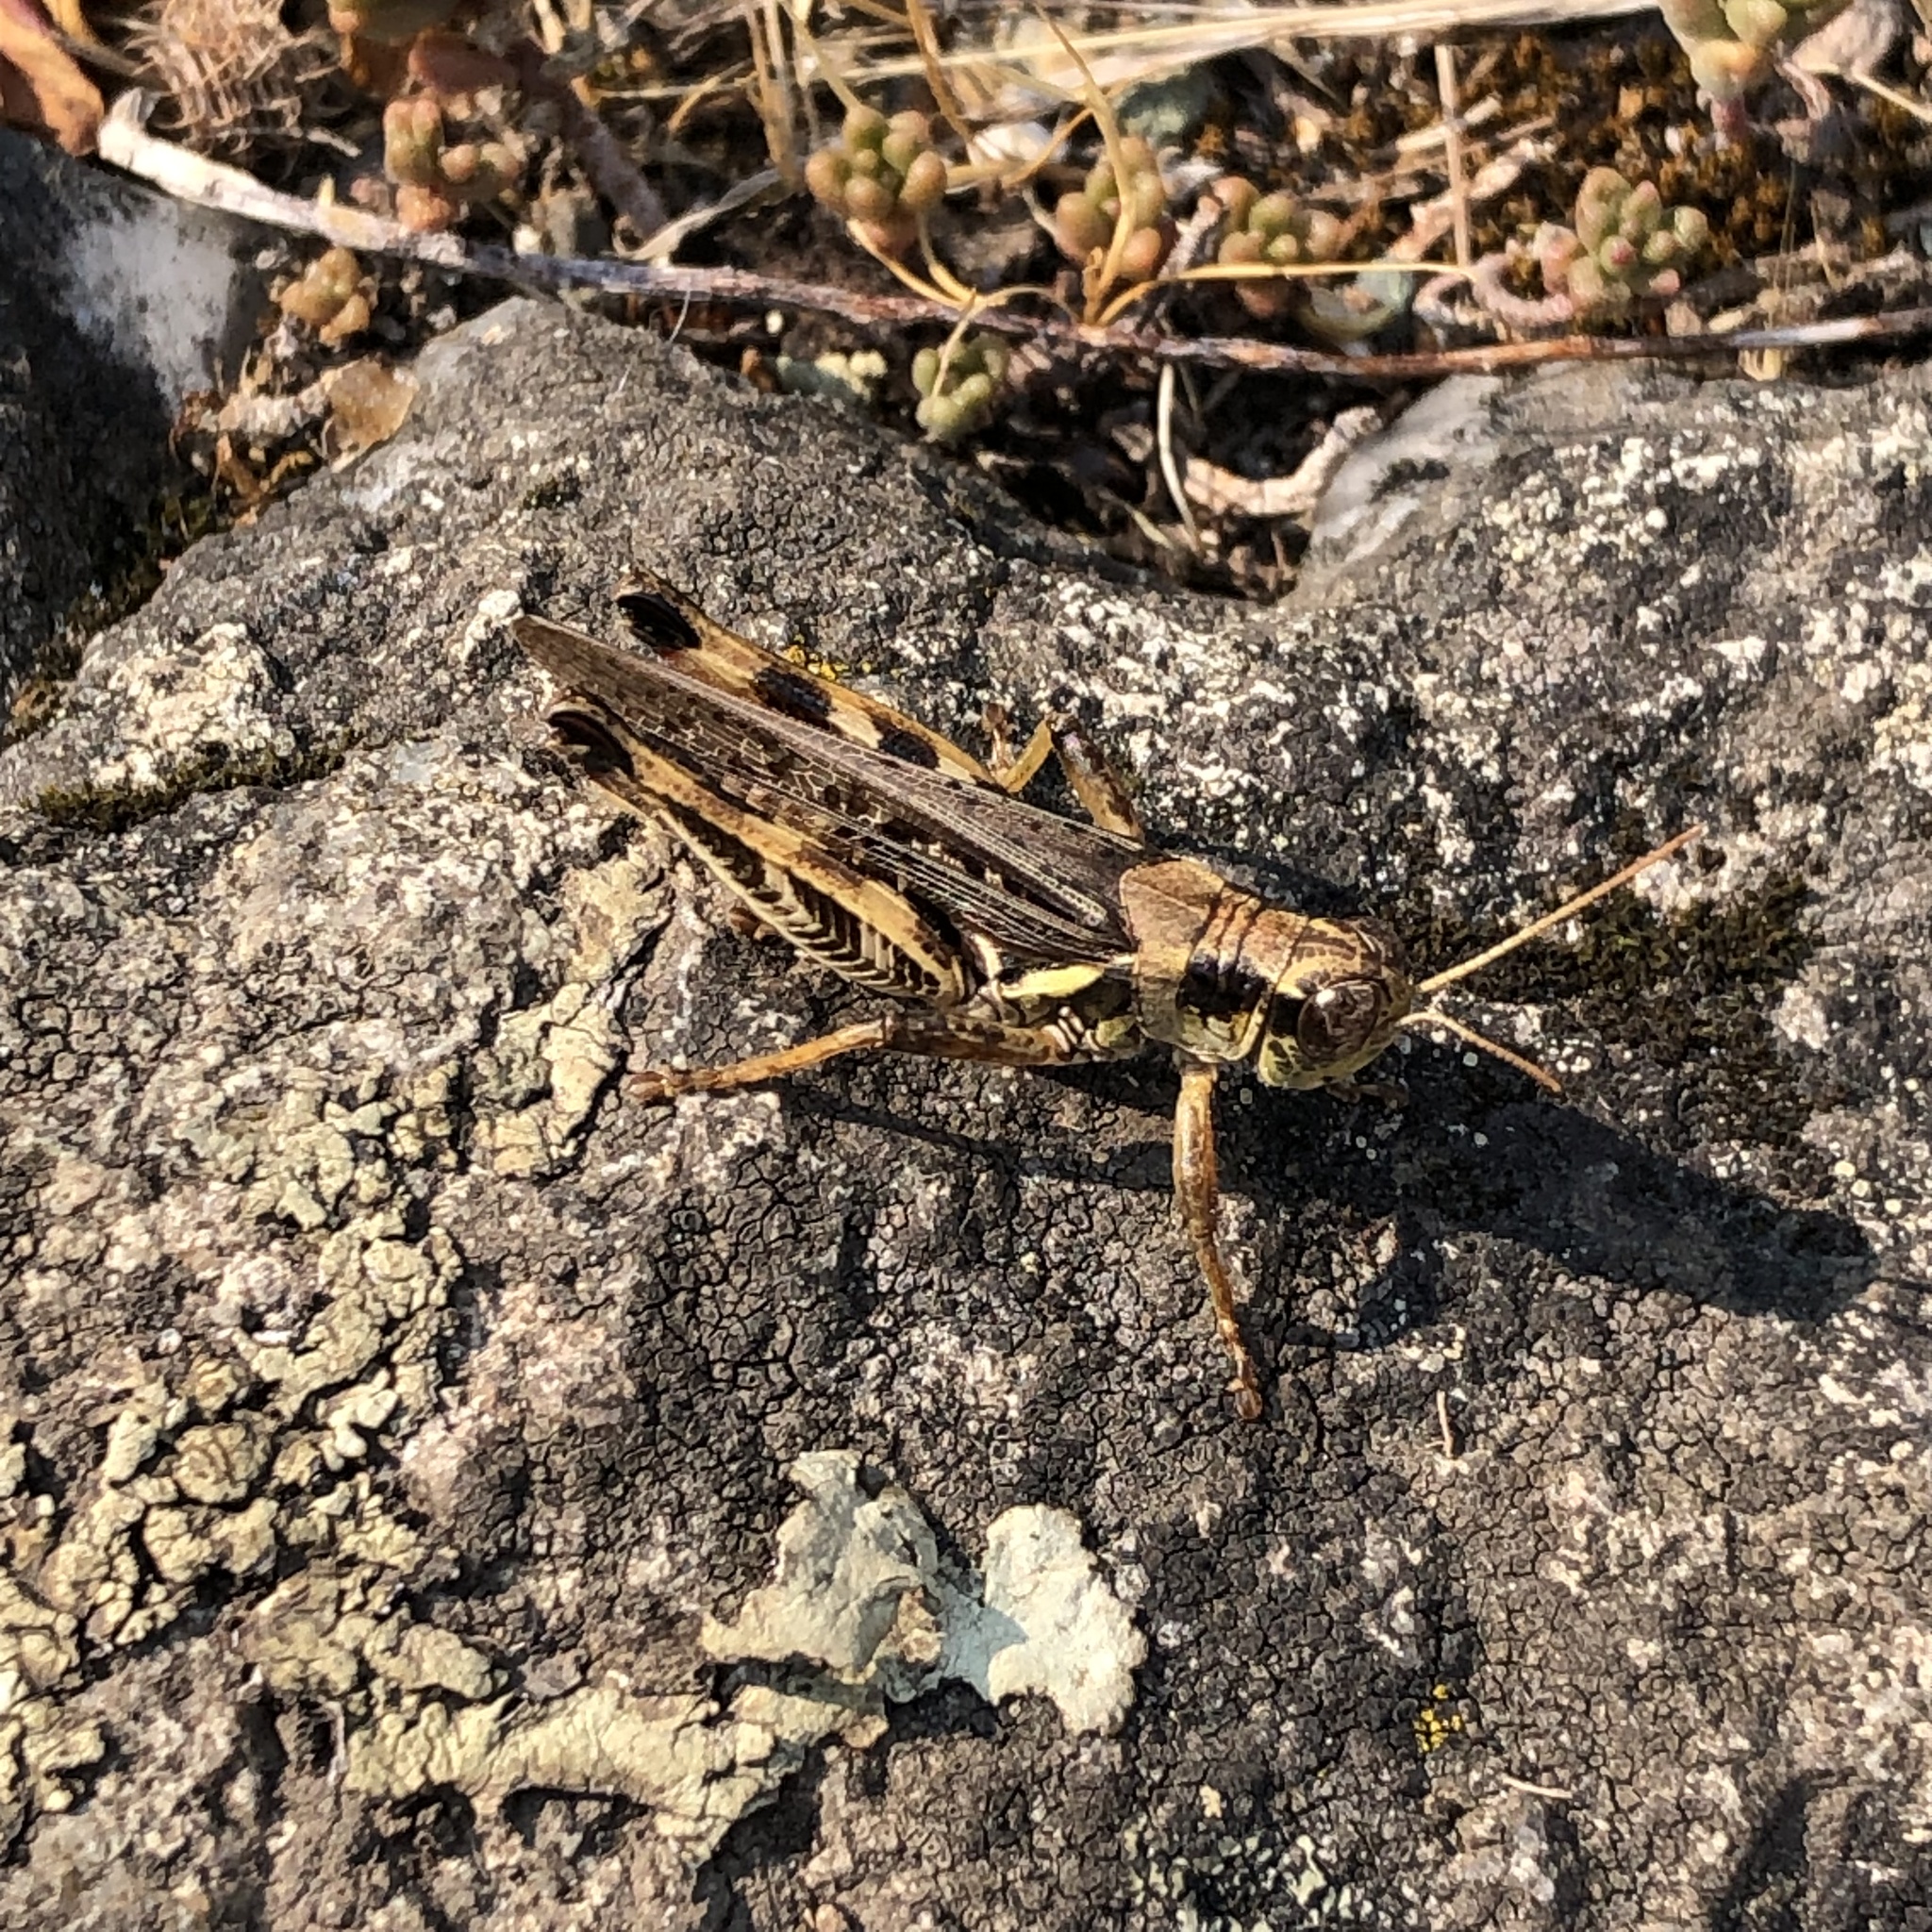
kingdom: Animalia
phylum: Arthropoda
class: Insecta
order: Orthoptera
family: Acrididae
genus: Melanoplus
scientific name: Melanoplus sanguinipes
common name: Migratory grasshopper
